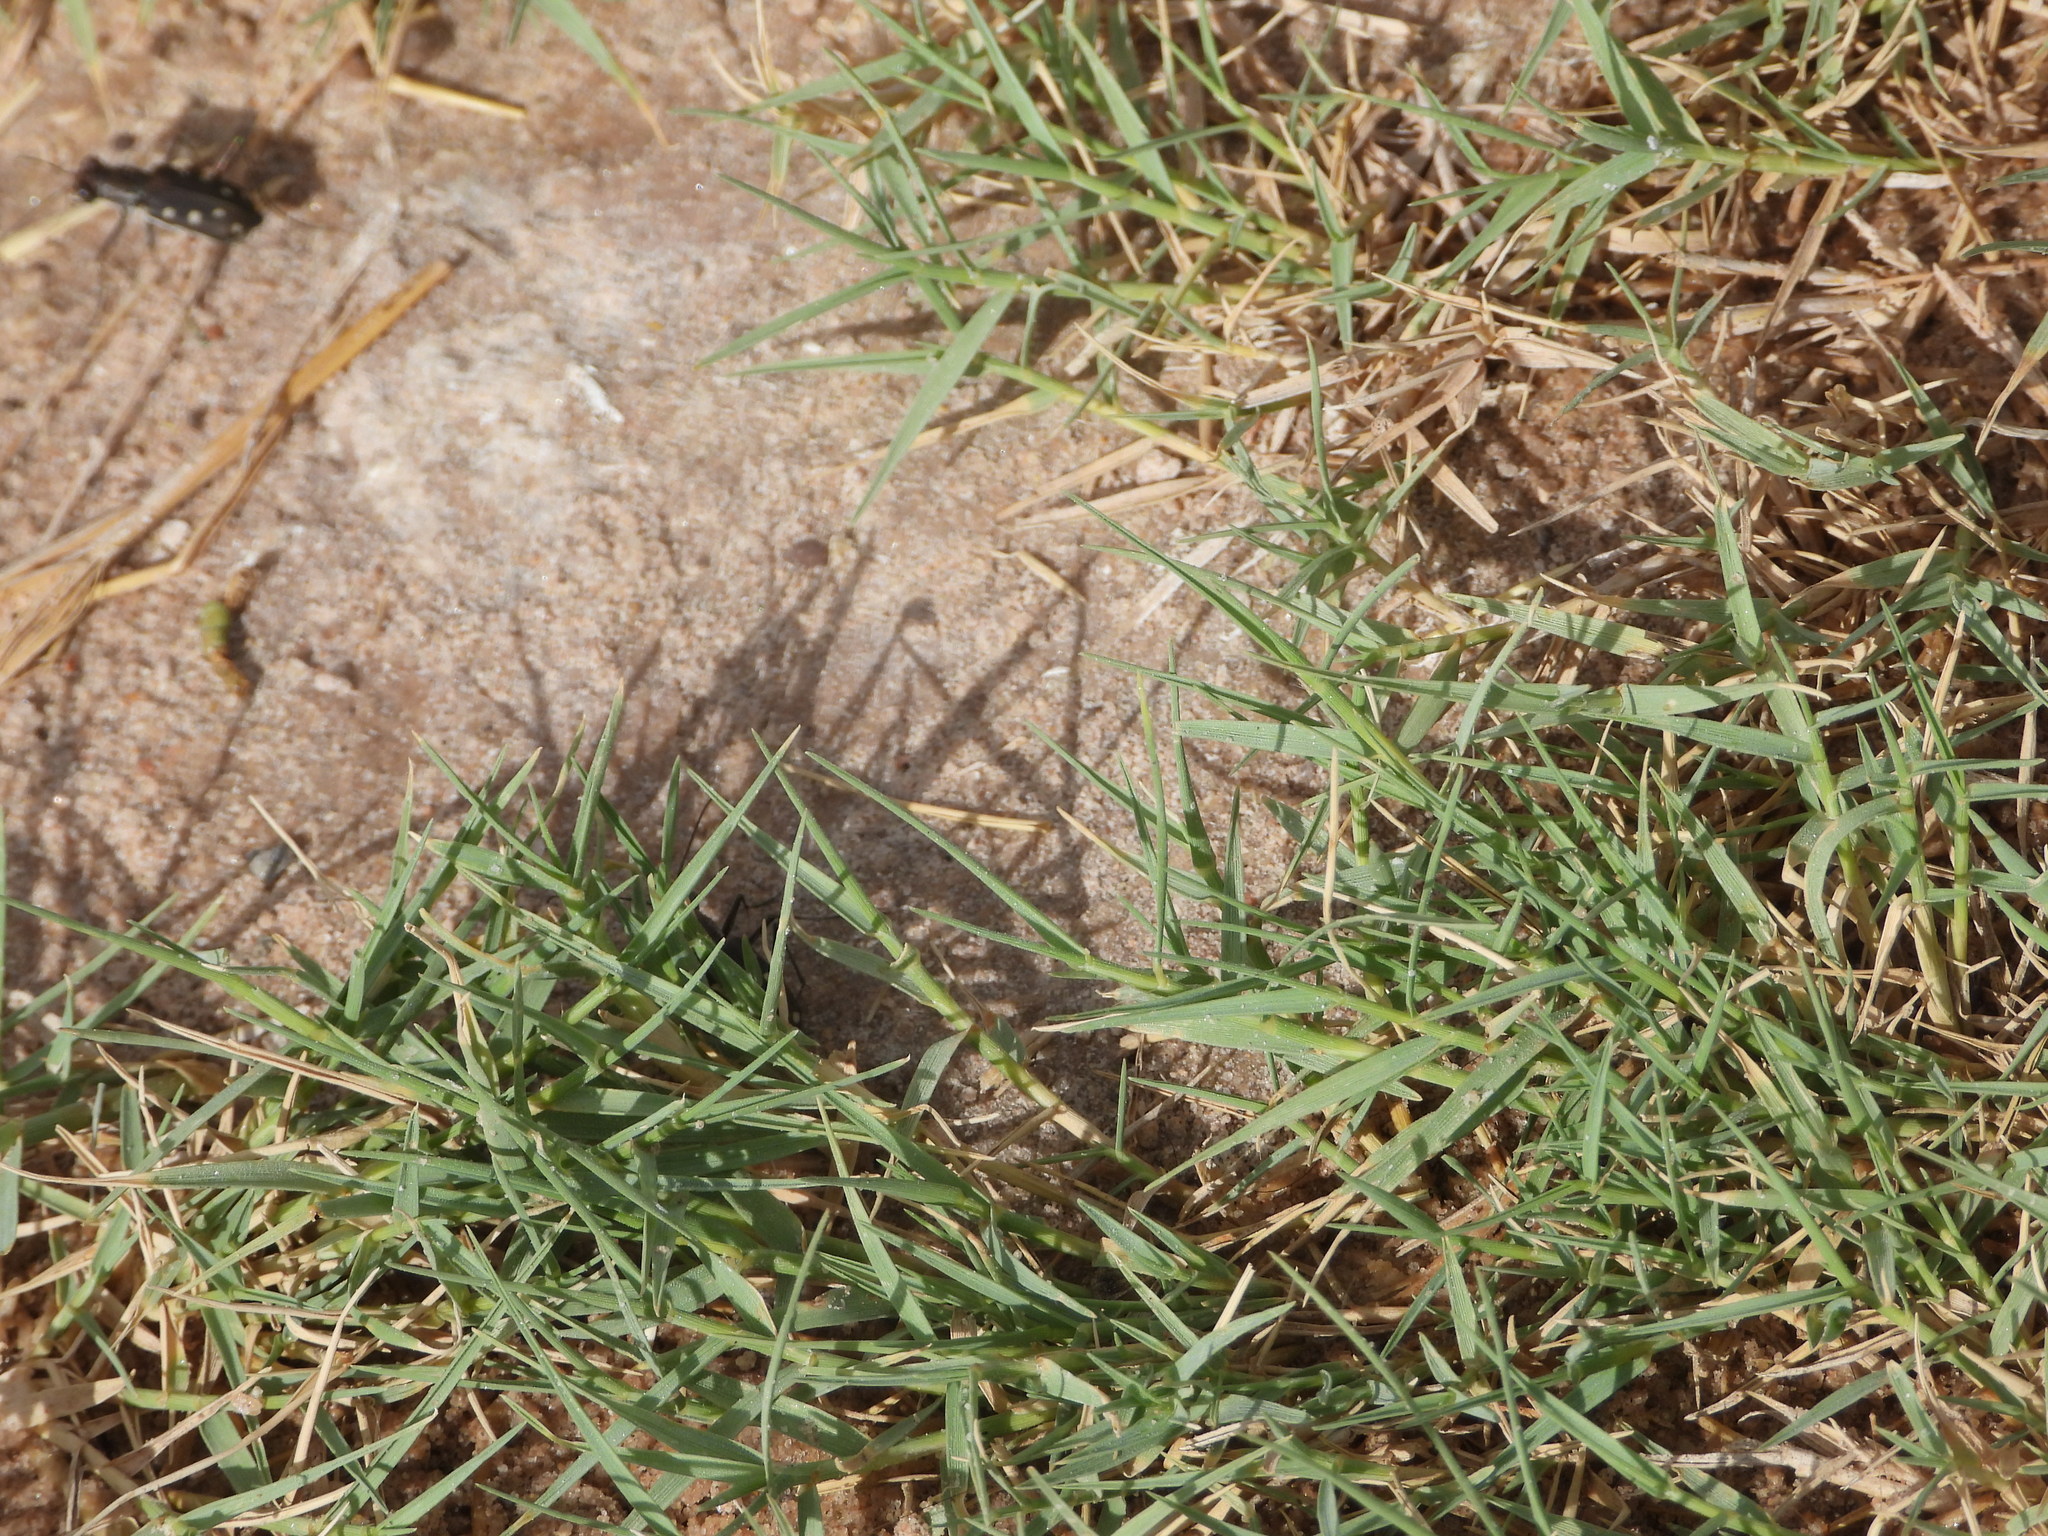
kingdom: Animalia
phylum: Arthropoda
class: Insecta
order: Coleoptera
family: Carabidae
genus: Cicindela
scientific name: Cicindela ocellata
